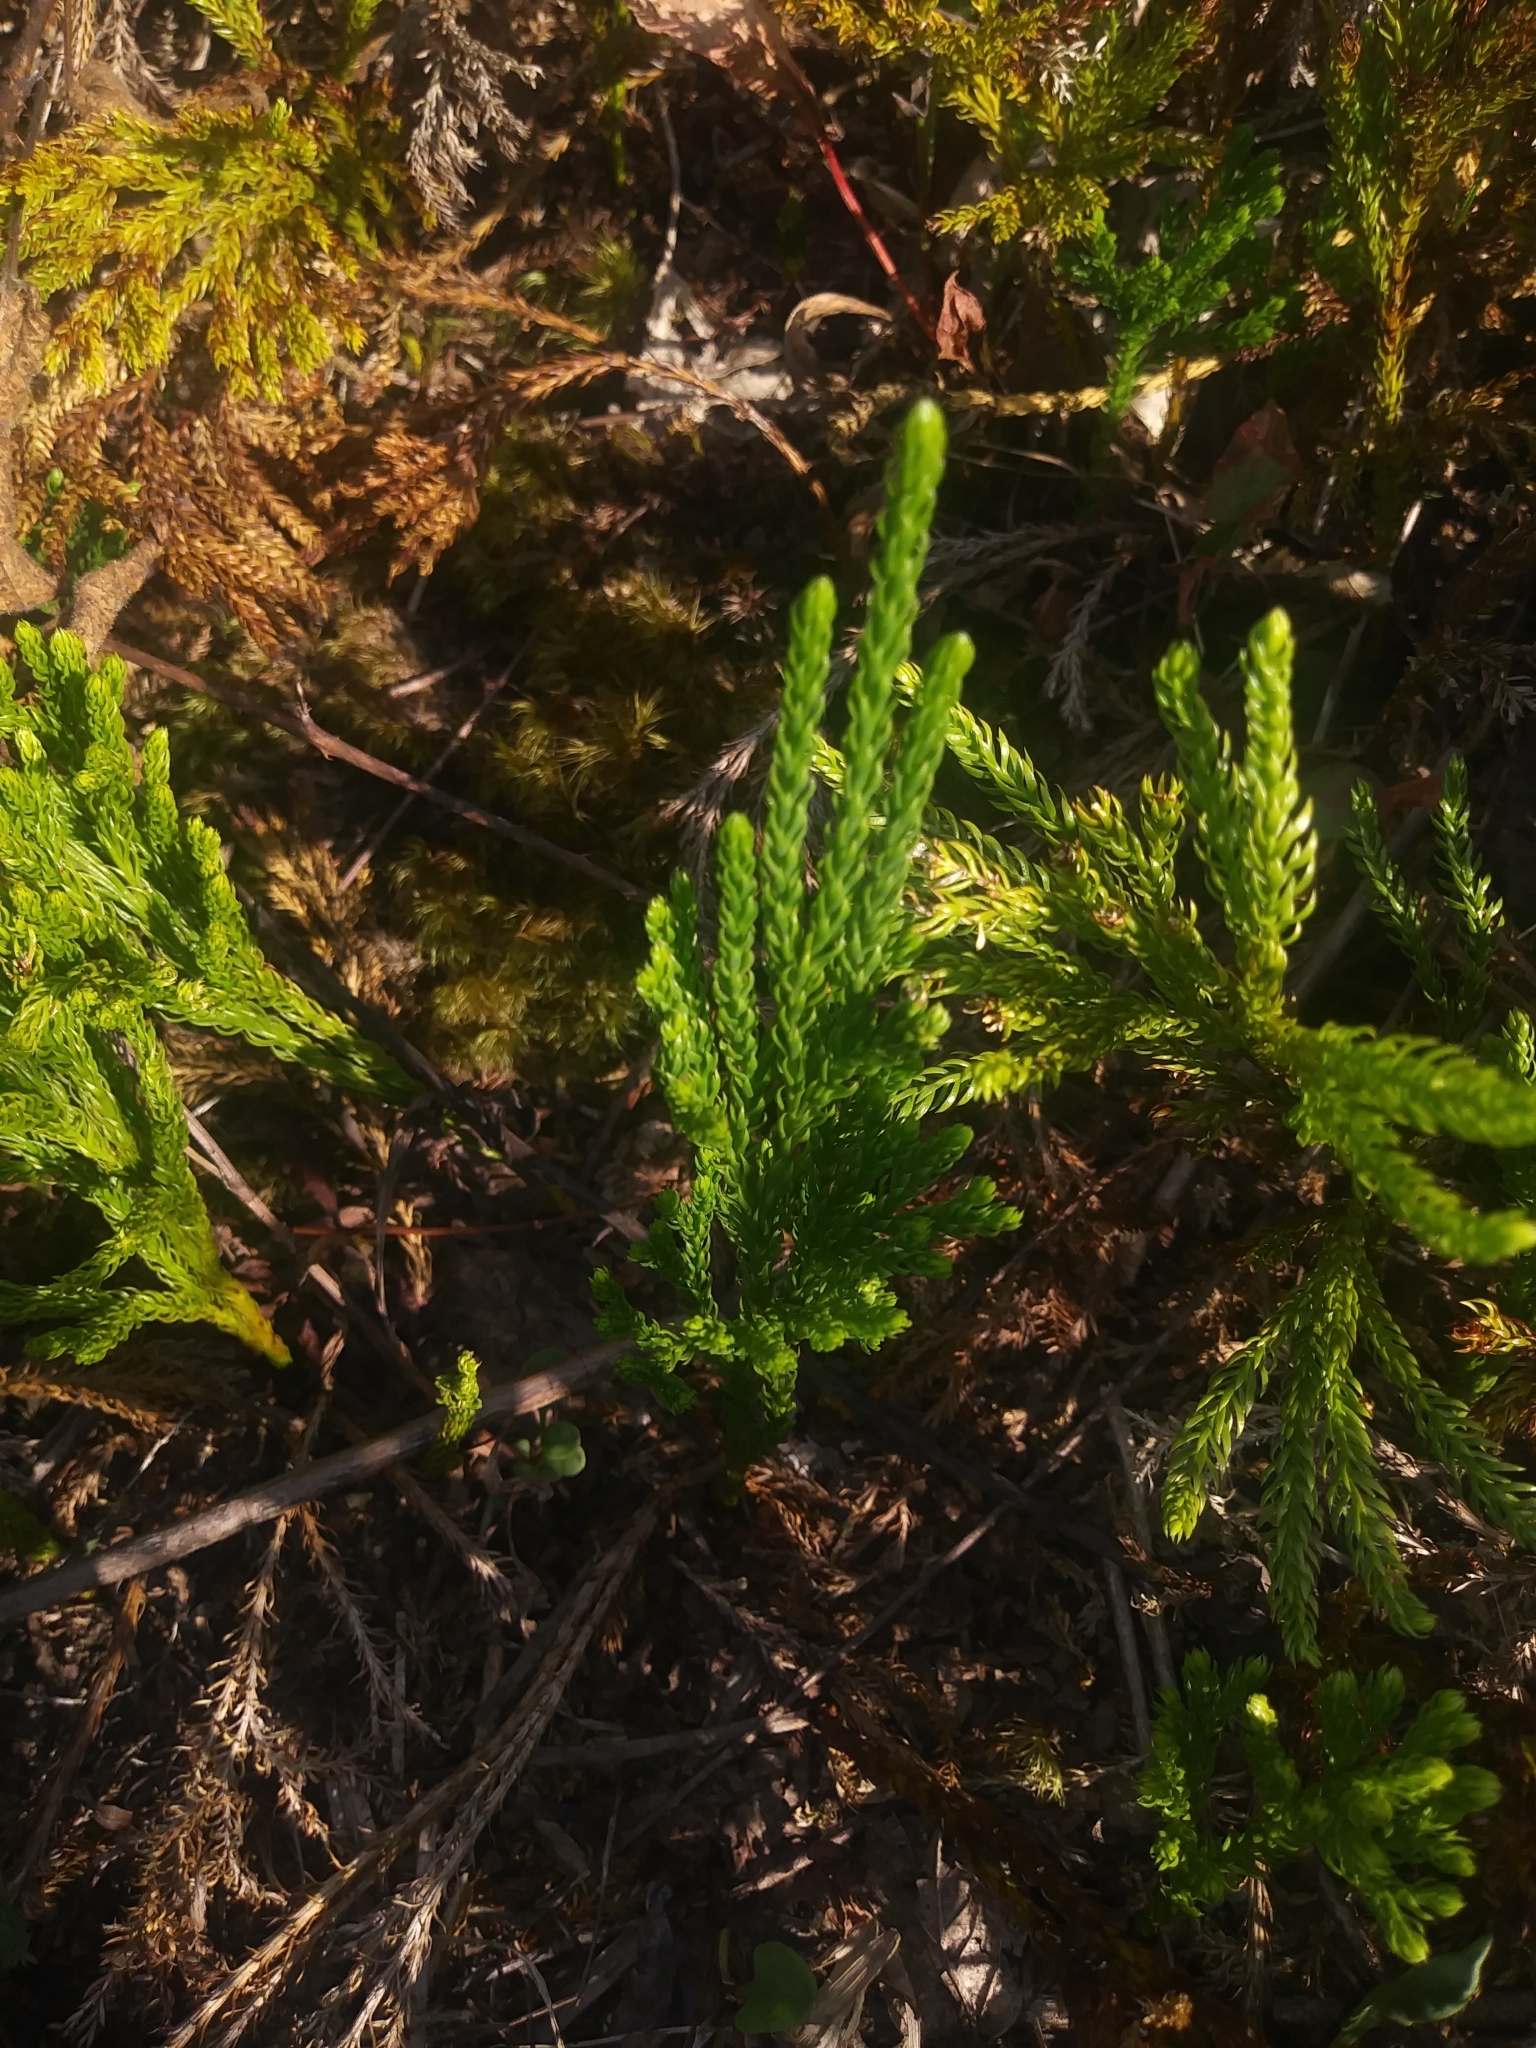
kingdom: Plantae
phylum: Tracheophyta
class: Lycopodiopsida
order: Lycopodiales
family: Lycopodiaceae
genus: Dendrolycopodium
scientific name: Dendrolycopodium hickeyi
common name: Hickey's clubmoss
